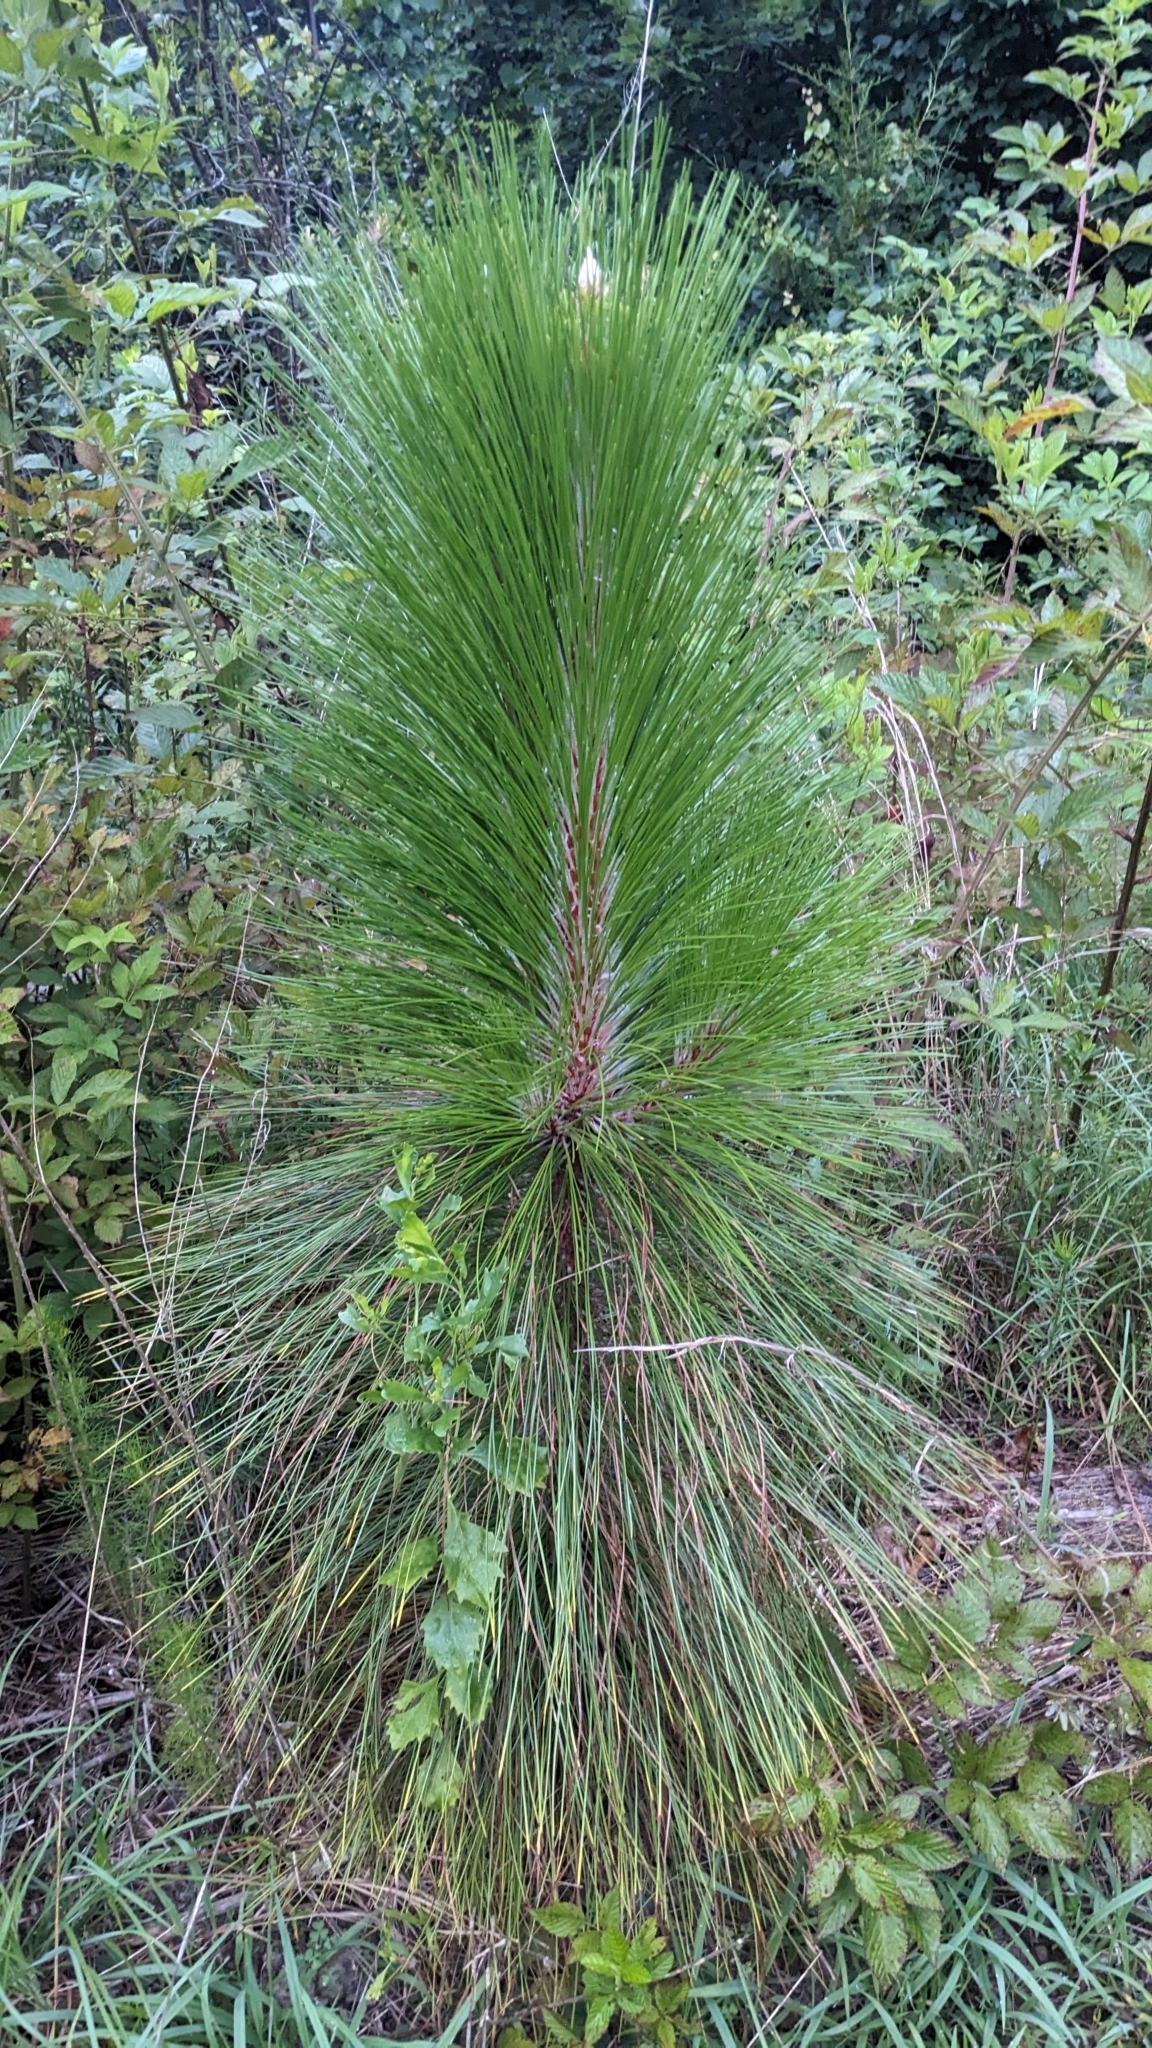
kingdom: Plantae
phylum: Tracheophyta
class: Pinopsida
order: Pinales
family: Pinaceae
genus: Pinus
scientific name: Pinus palustris
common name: Longleaf pine
